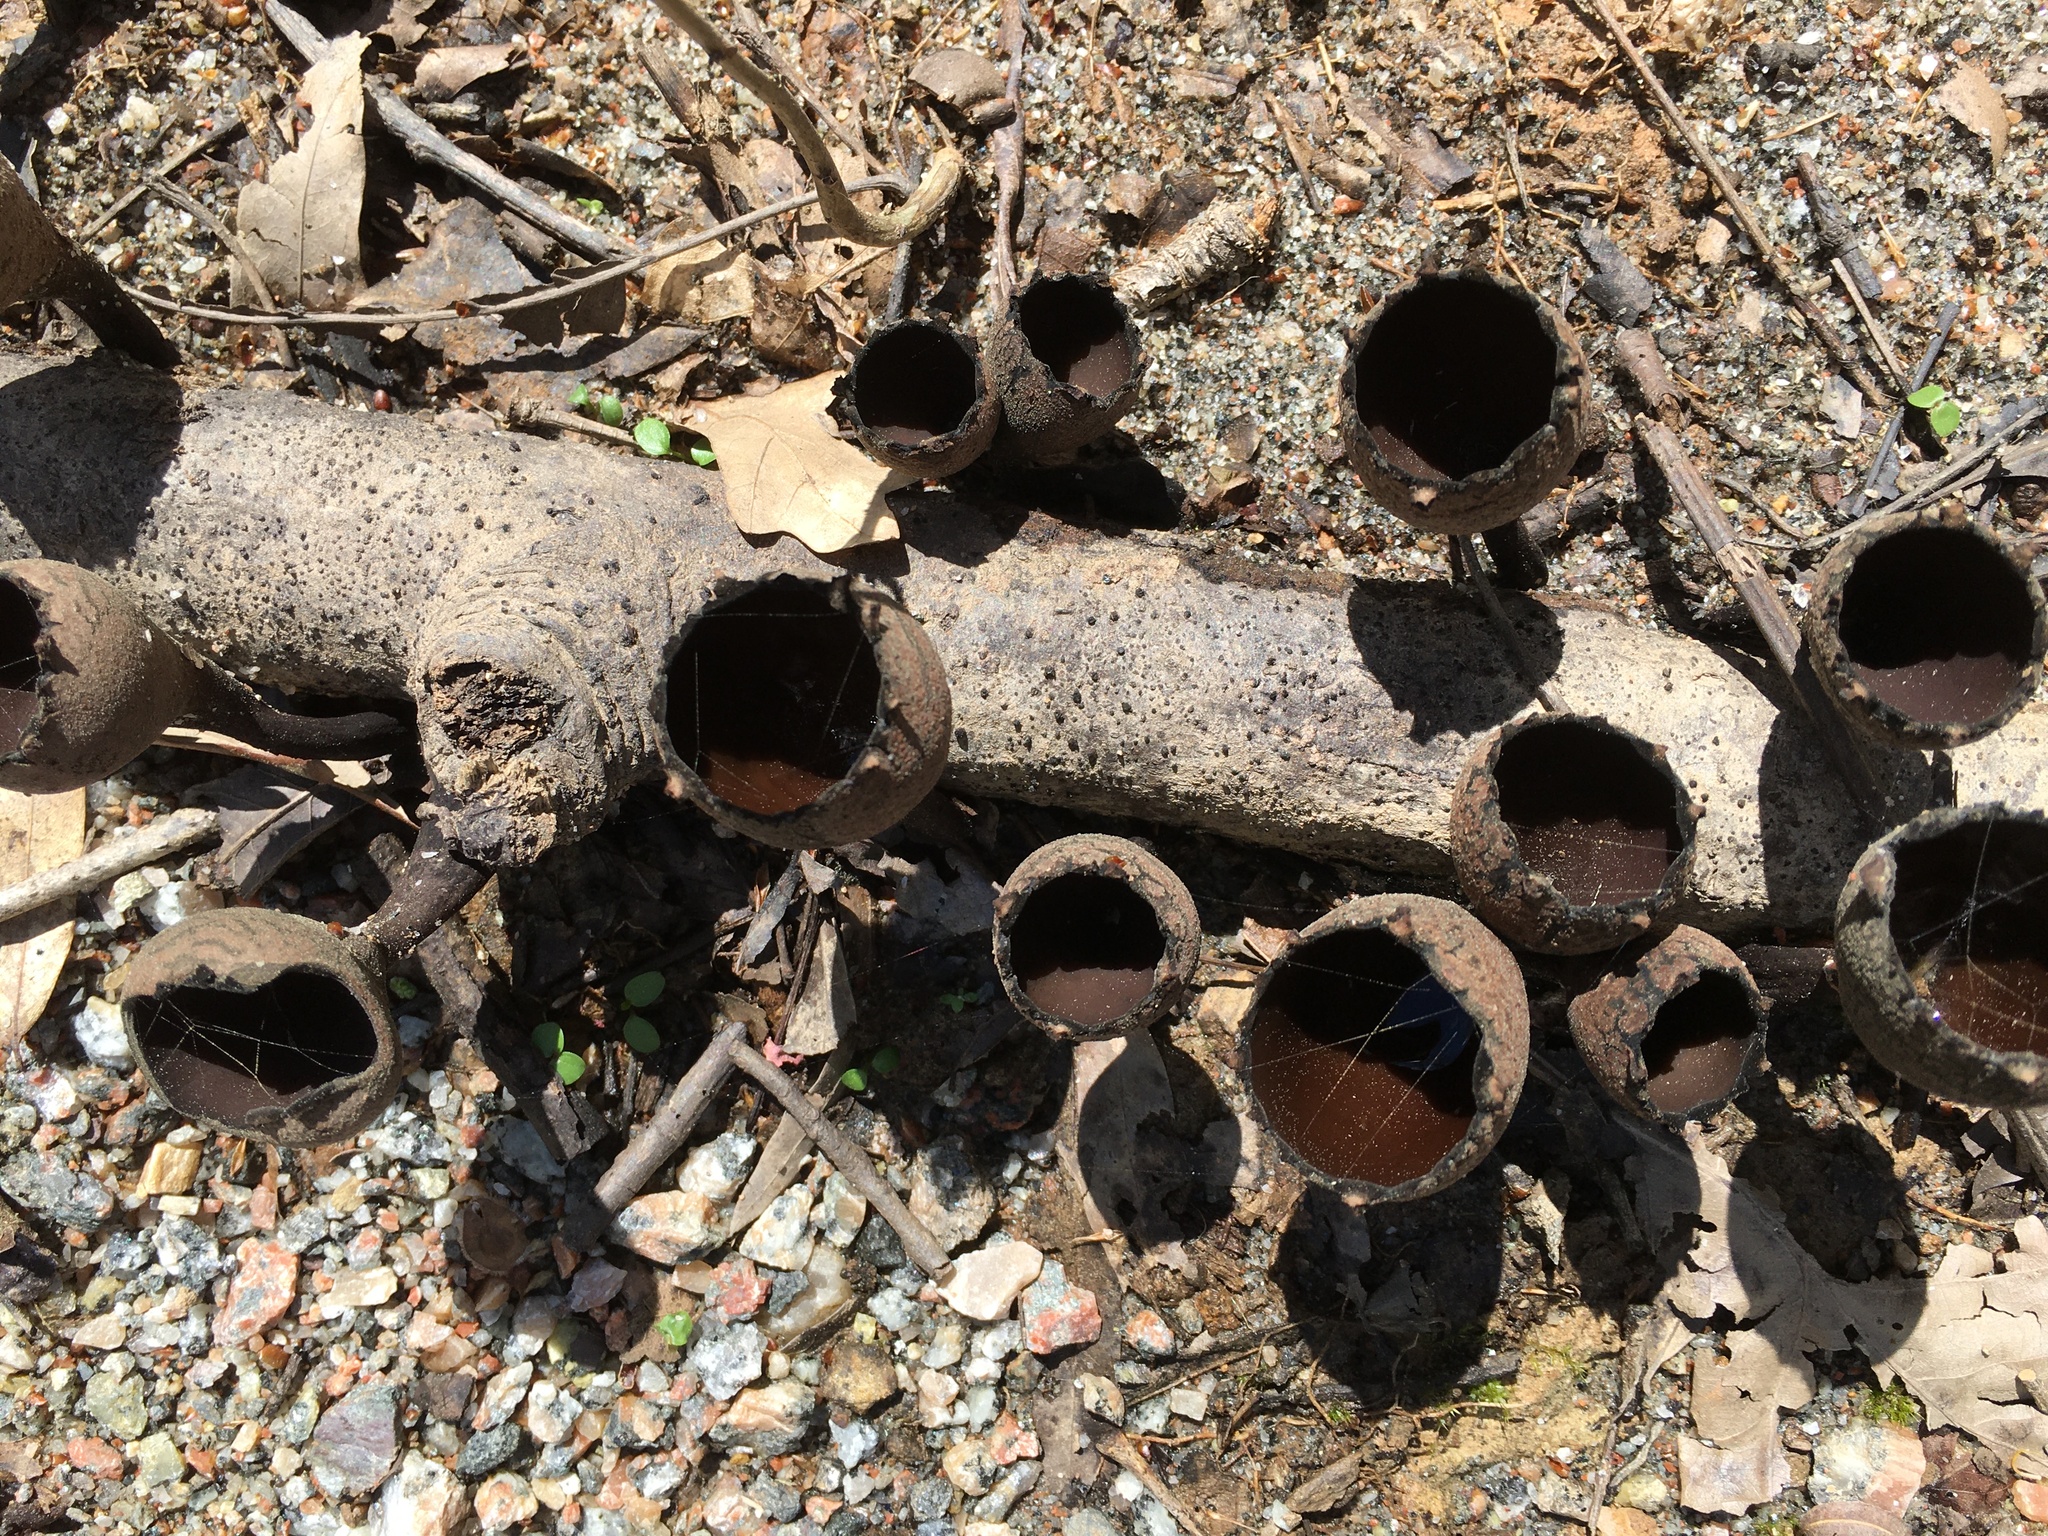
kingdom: Fungi
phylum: Ascomycota
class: Pezizomycetes
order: Pezizales
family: Sarcosomataceae
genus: Urnula
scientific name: Urnula craterium
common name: Devil's urn
